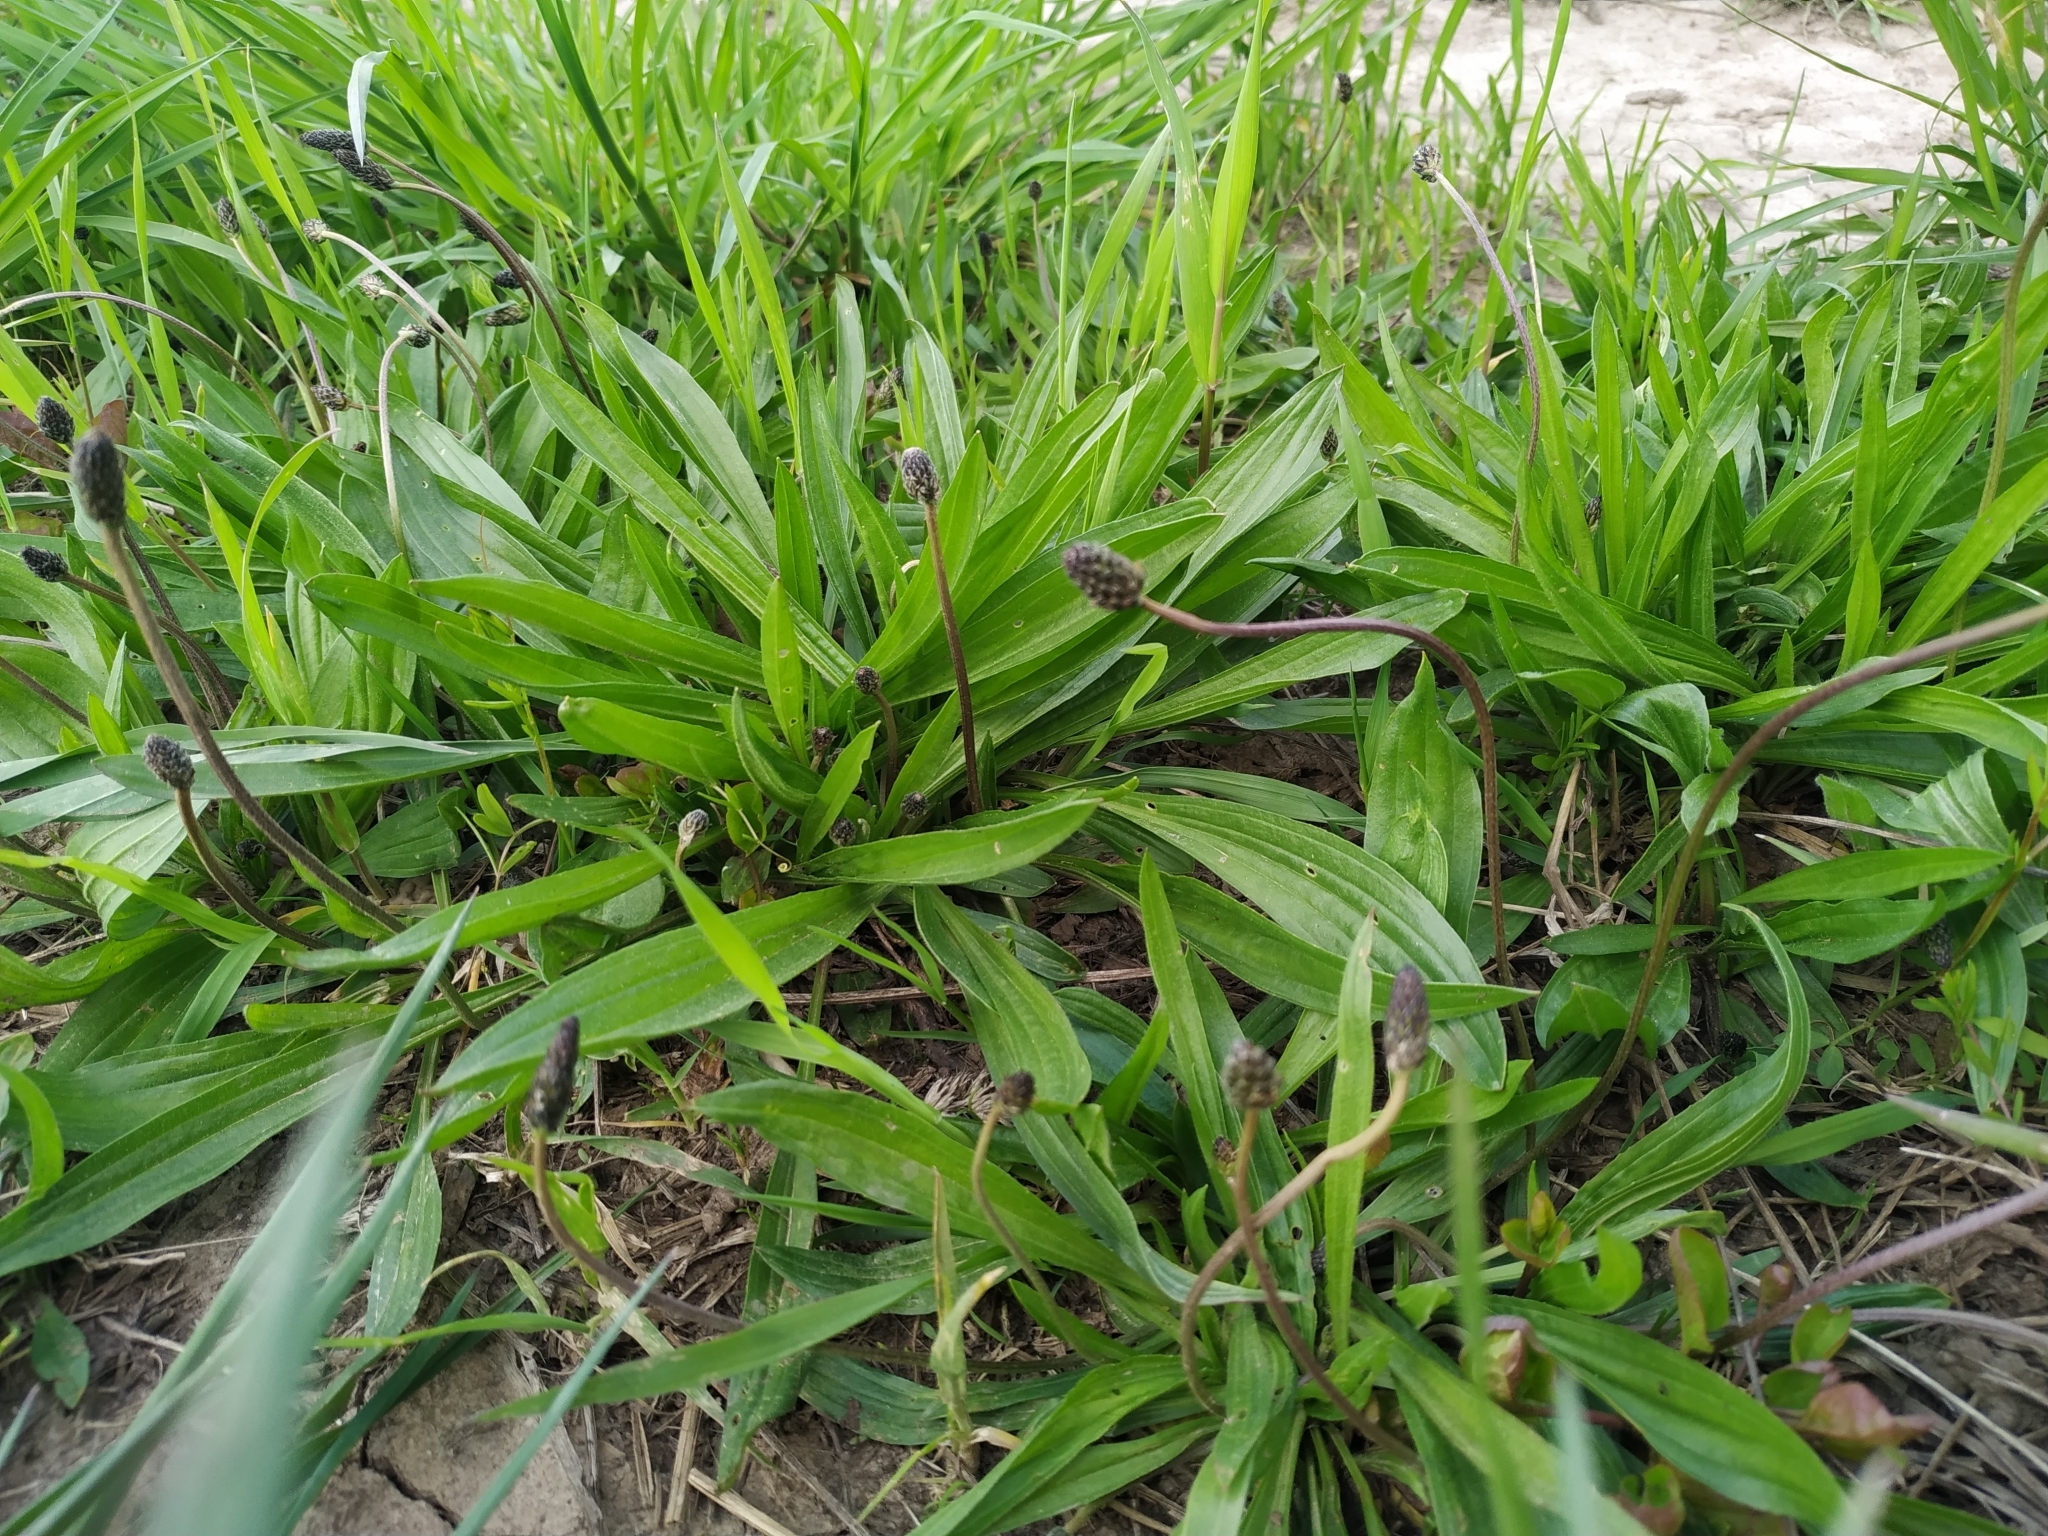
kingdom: Plantae
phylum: Tracheophyta
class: Magnoliopsida
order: Lamiales
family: Plantaginaceae
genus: Plantago
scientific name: Plantago lanceolata
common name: Ribwort plantain
